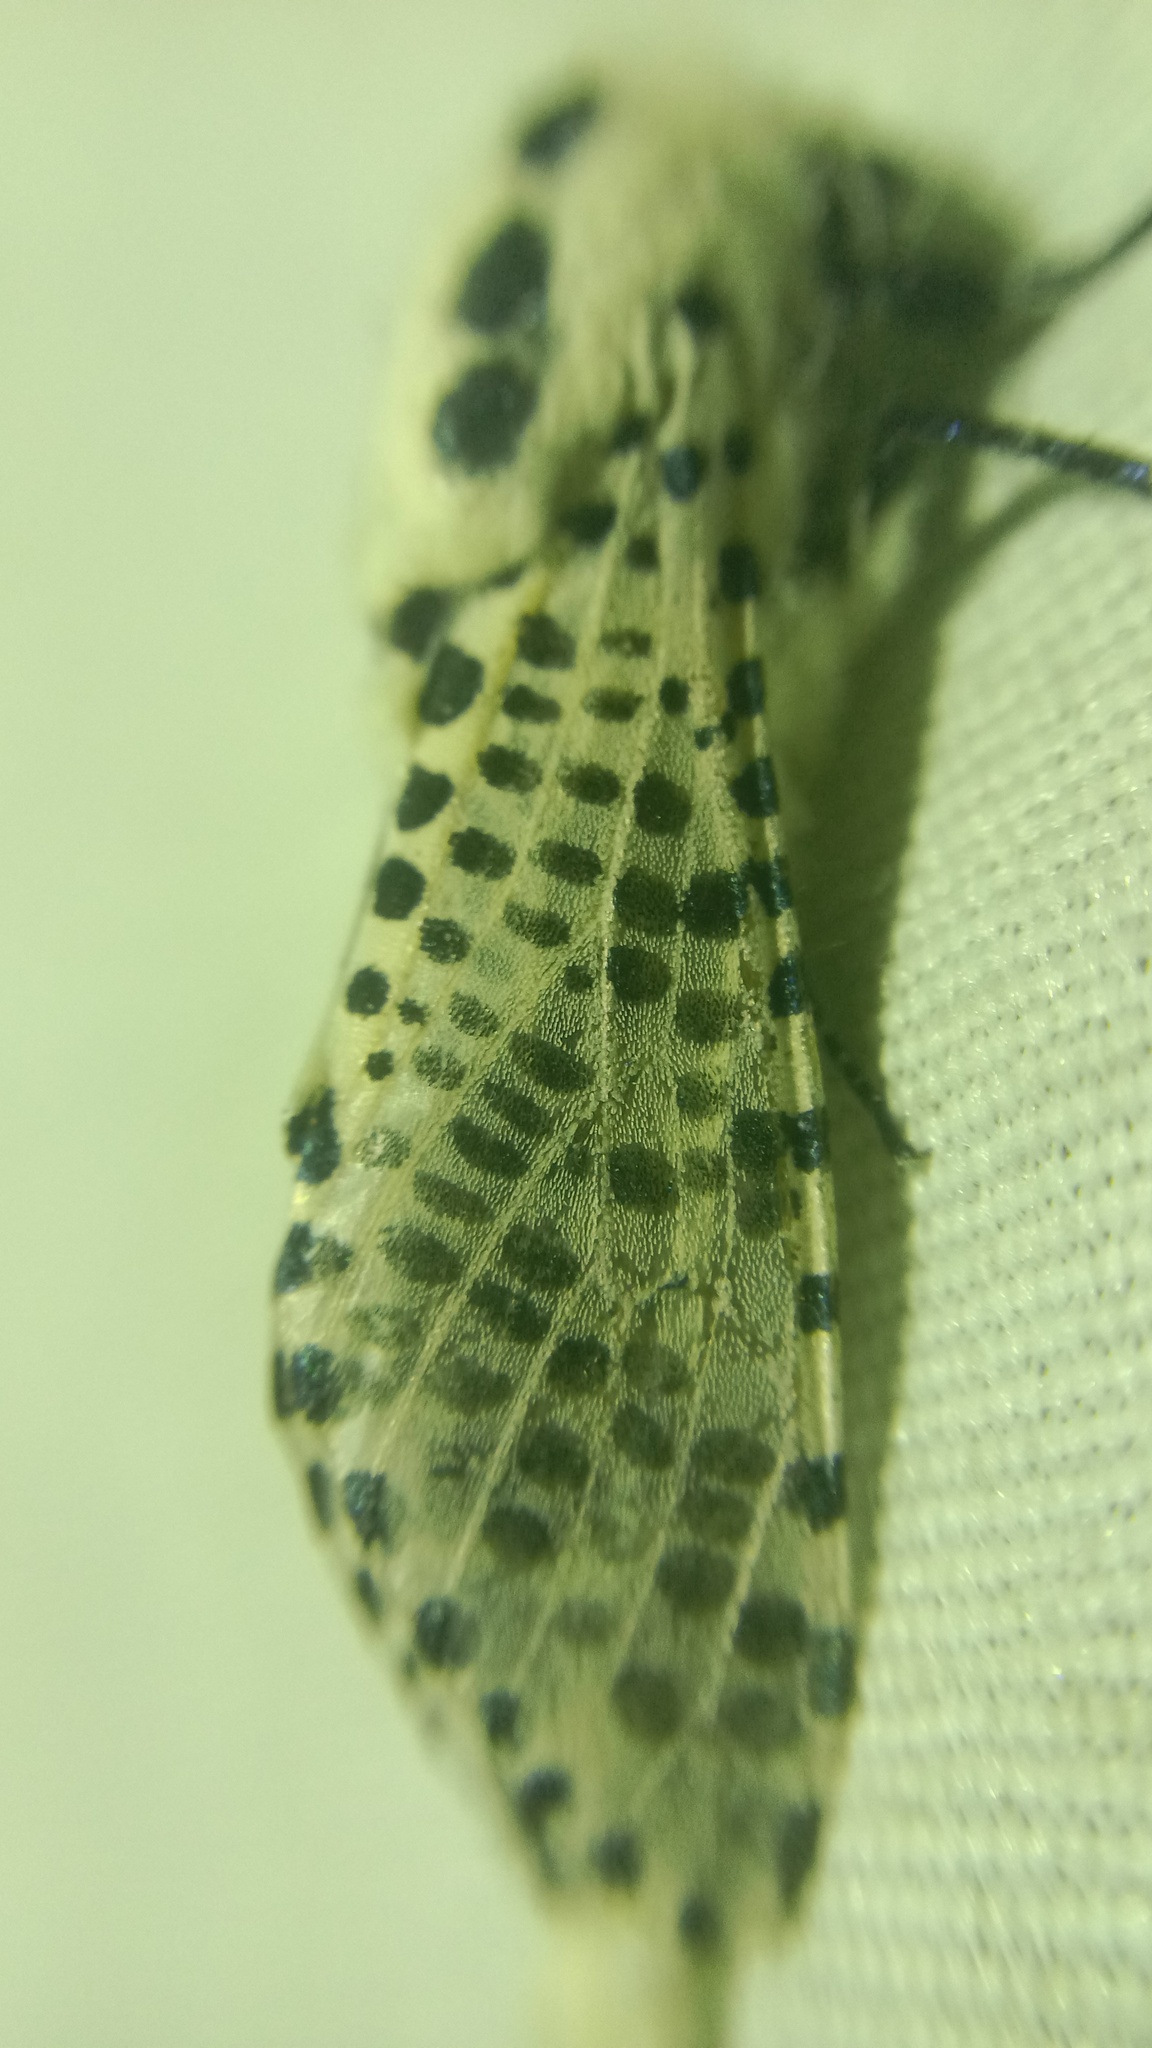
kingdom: Animalia
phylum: Arthropoda
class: Insecta
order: Lepidoptera
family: Cossidae
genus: Zeuzera
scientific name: Zeuzera pyrina
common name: Leopard moth
